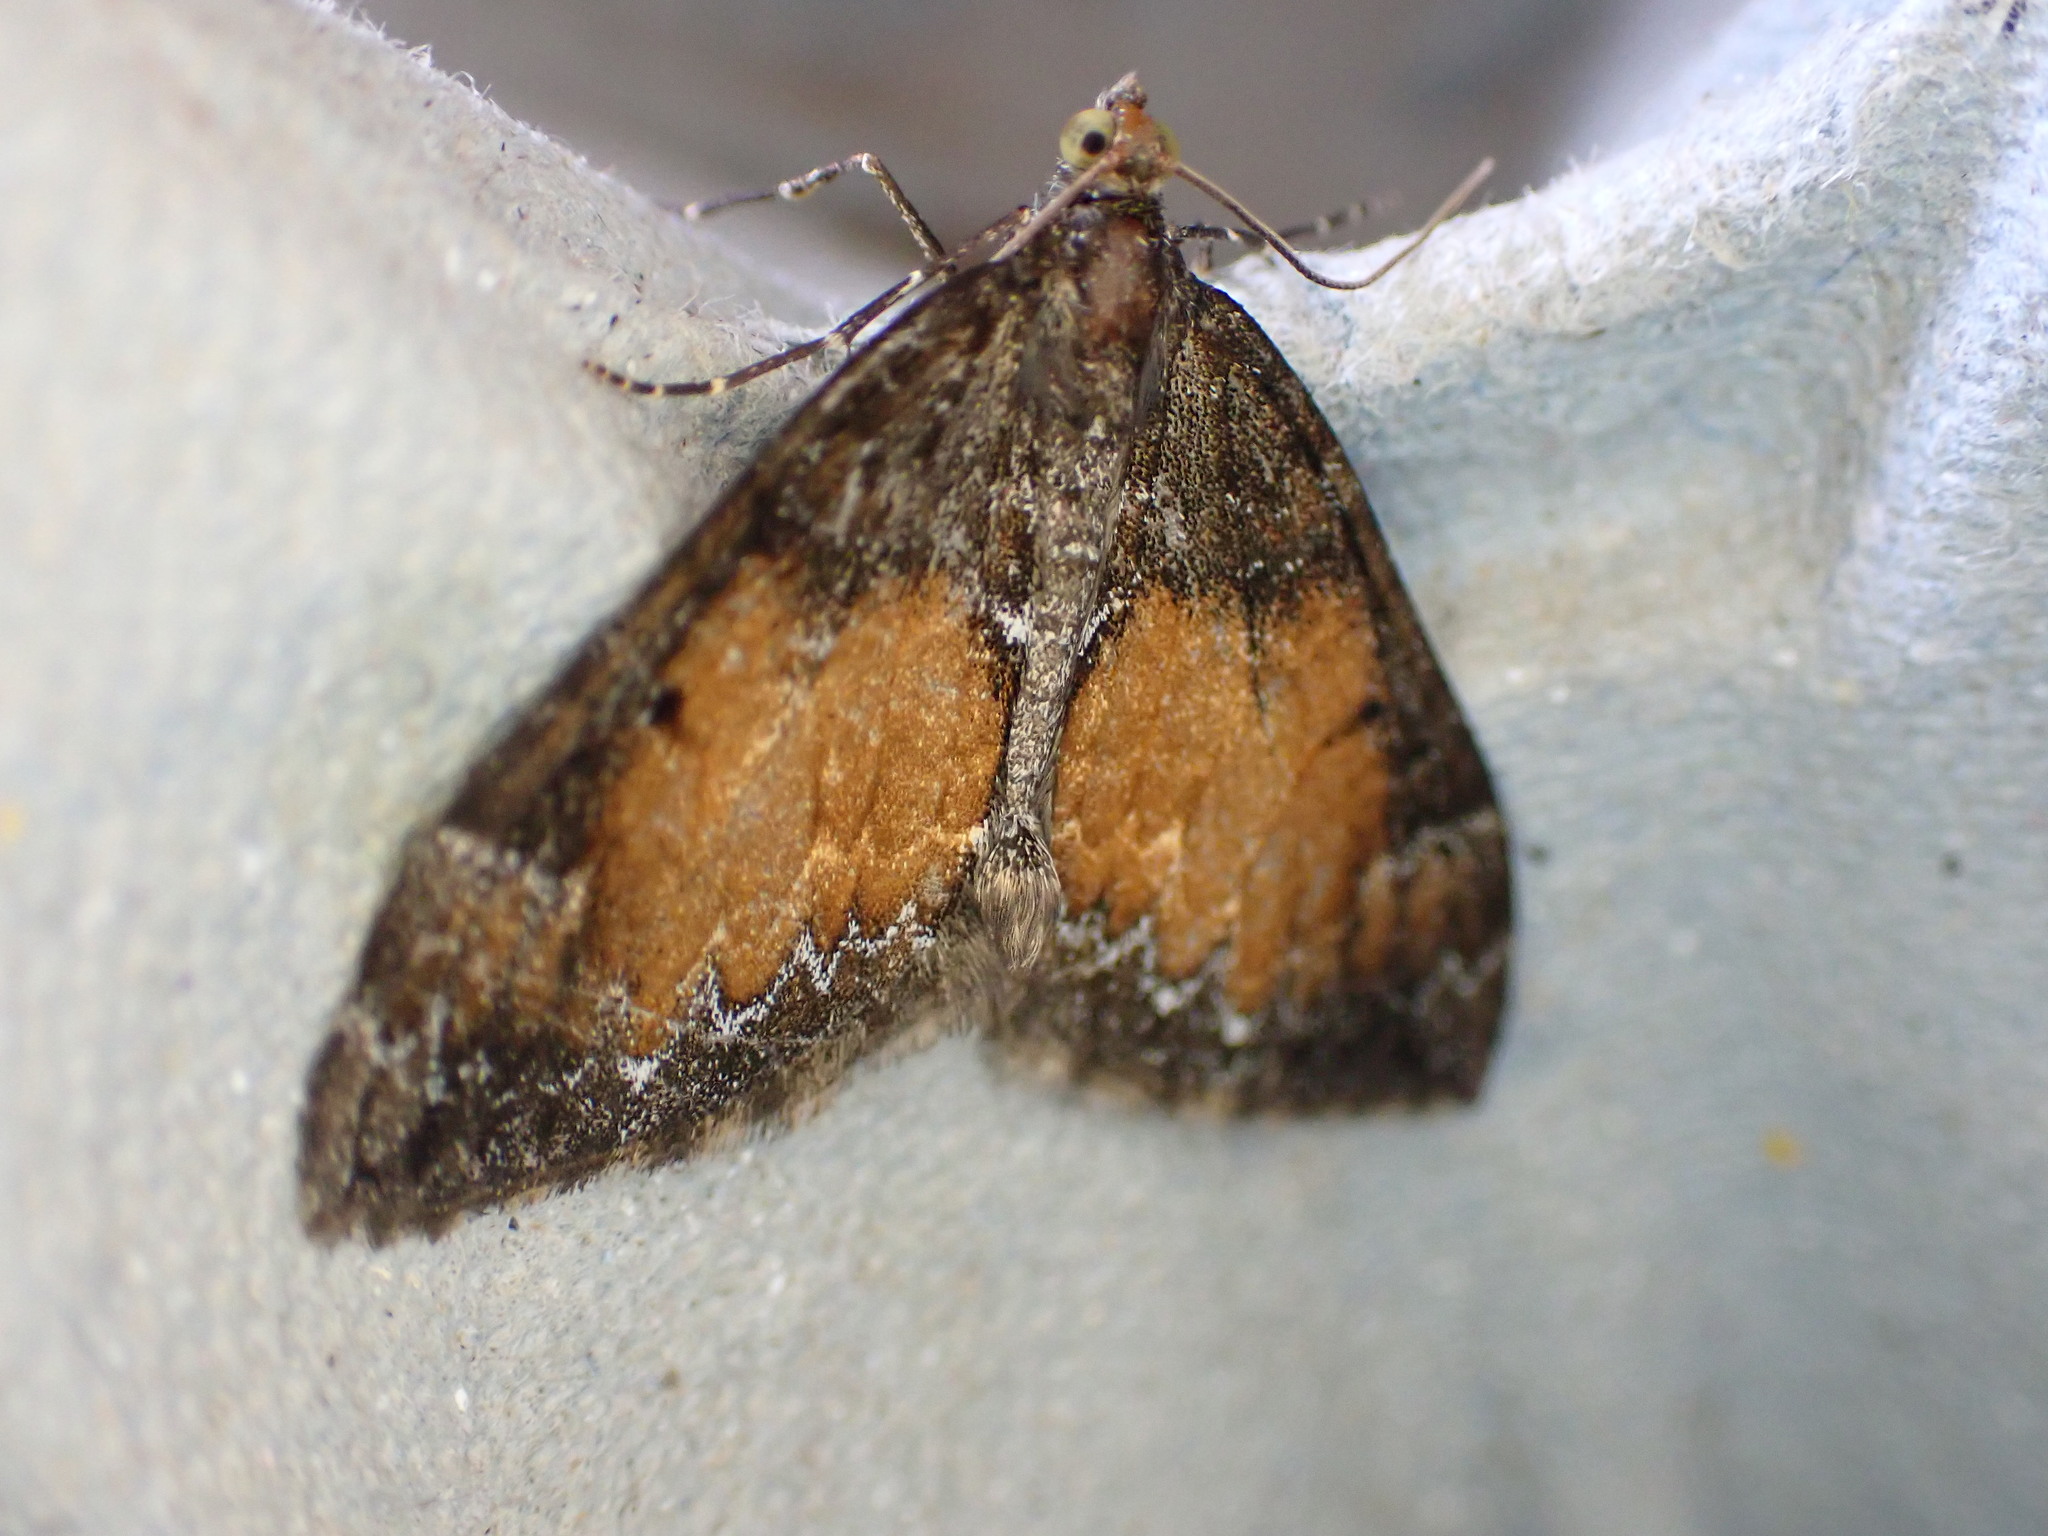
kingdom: Animalia
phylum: Arthropoda
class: Insecta
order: Lepidoptera
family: Geometridae
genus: Dysstroma
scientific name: Dysstroma truncata
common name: Common marbled carpet
